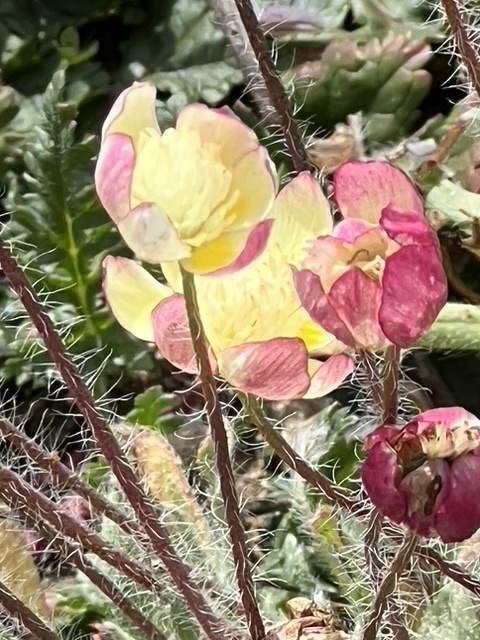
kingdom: Plantae
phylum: Tracheophyta
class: Magnoliopsida
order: Ranunculales
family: Papaveraceae
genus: Platystemon
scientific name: Platystemon californicus
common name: Cream-cups
